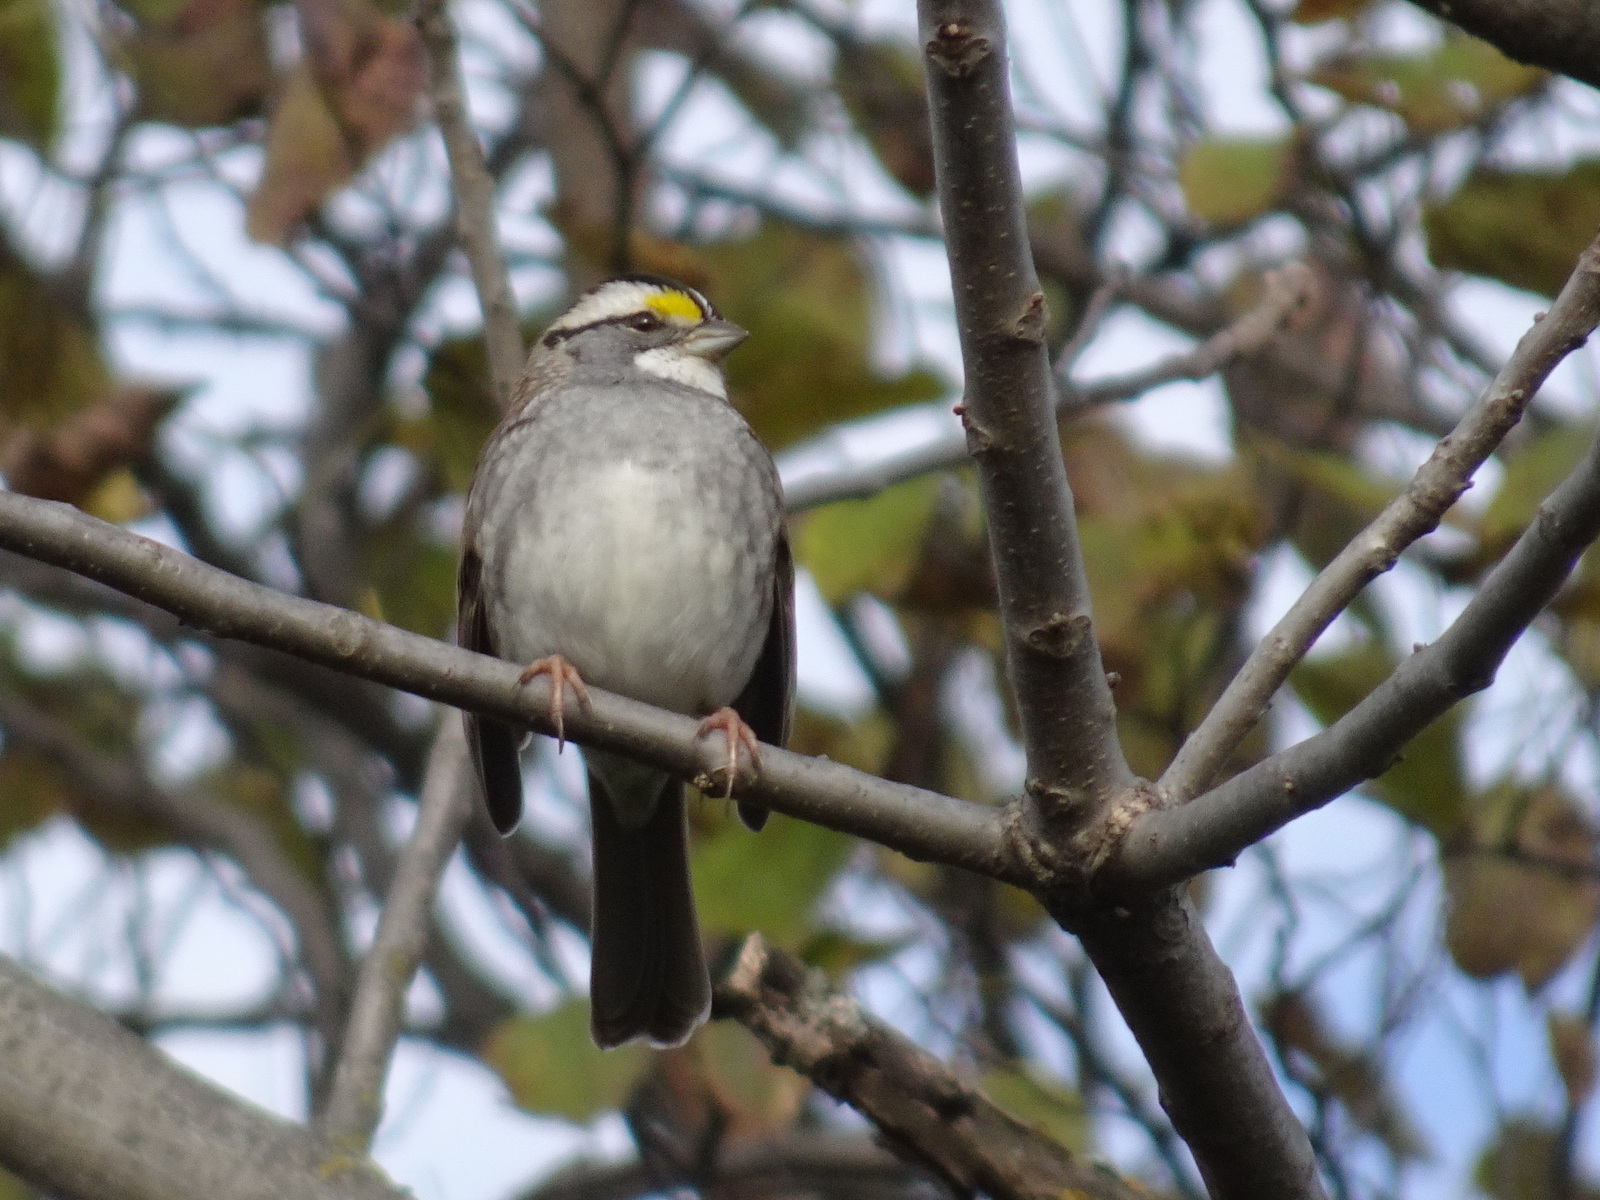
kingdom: Animalia
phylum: Chordata
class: Aves
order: Passeriformes
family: Passerellidae
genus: Zonotrichia
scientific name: Zonotrichia albicollis
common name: White-throated sparrow
